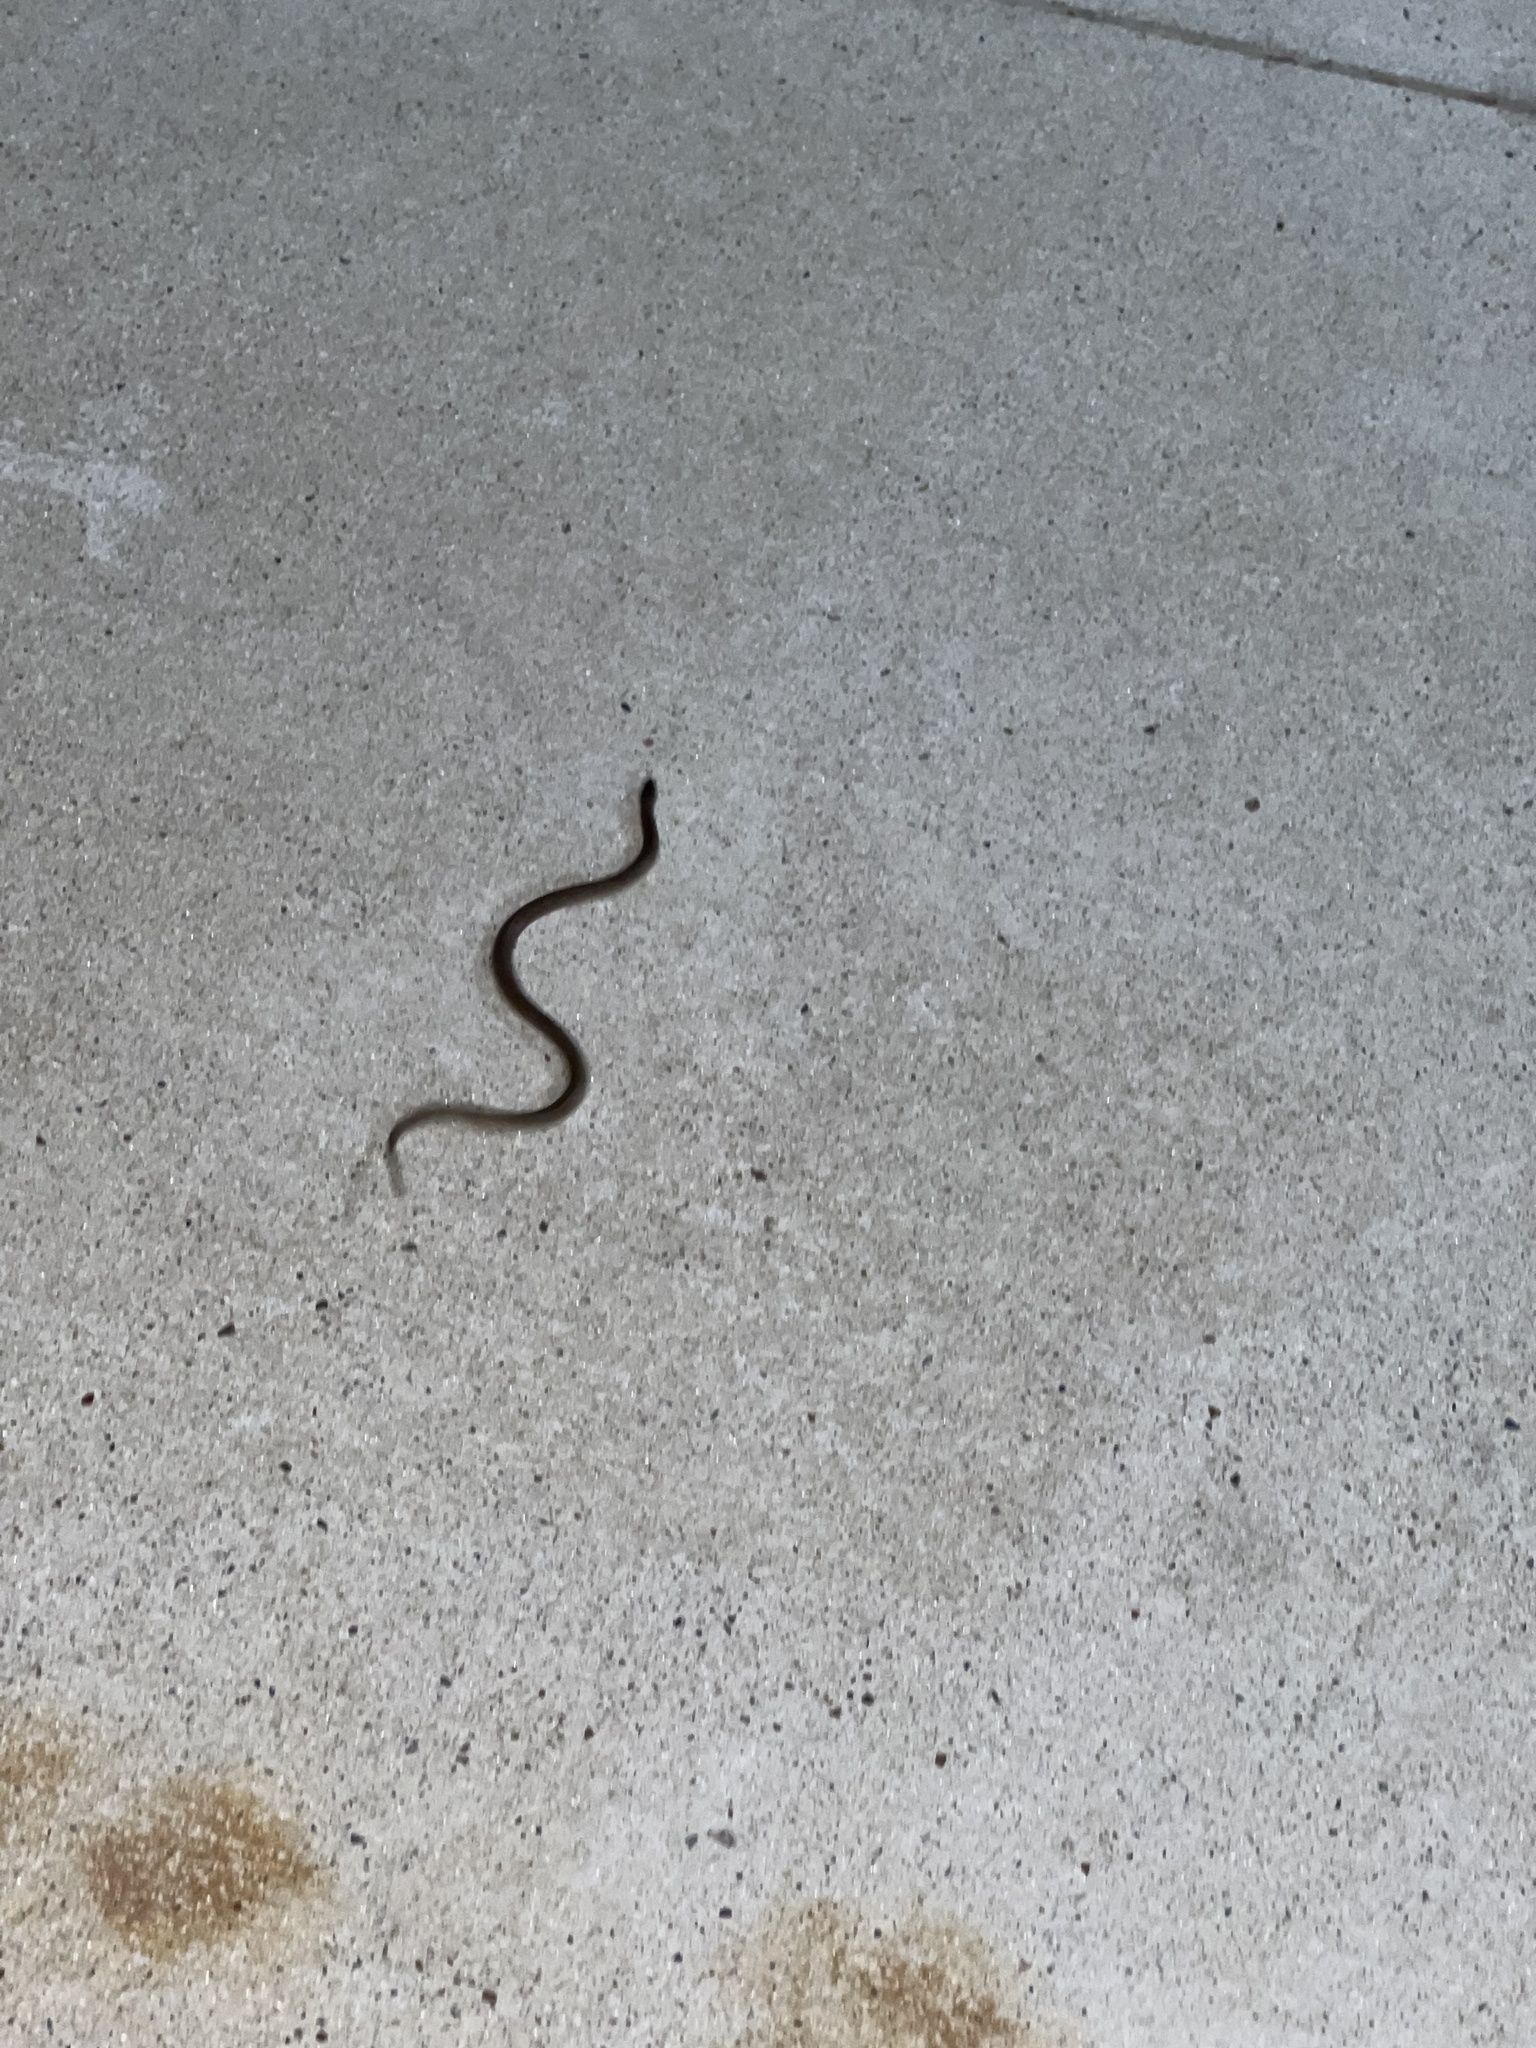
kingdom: Animalia
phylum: Chordata
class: Squamata
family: Colubridae
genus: Haldea
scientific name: Haldea striatula
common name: Rough earth snake
